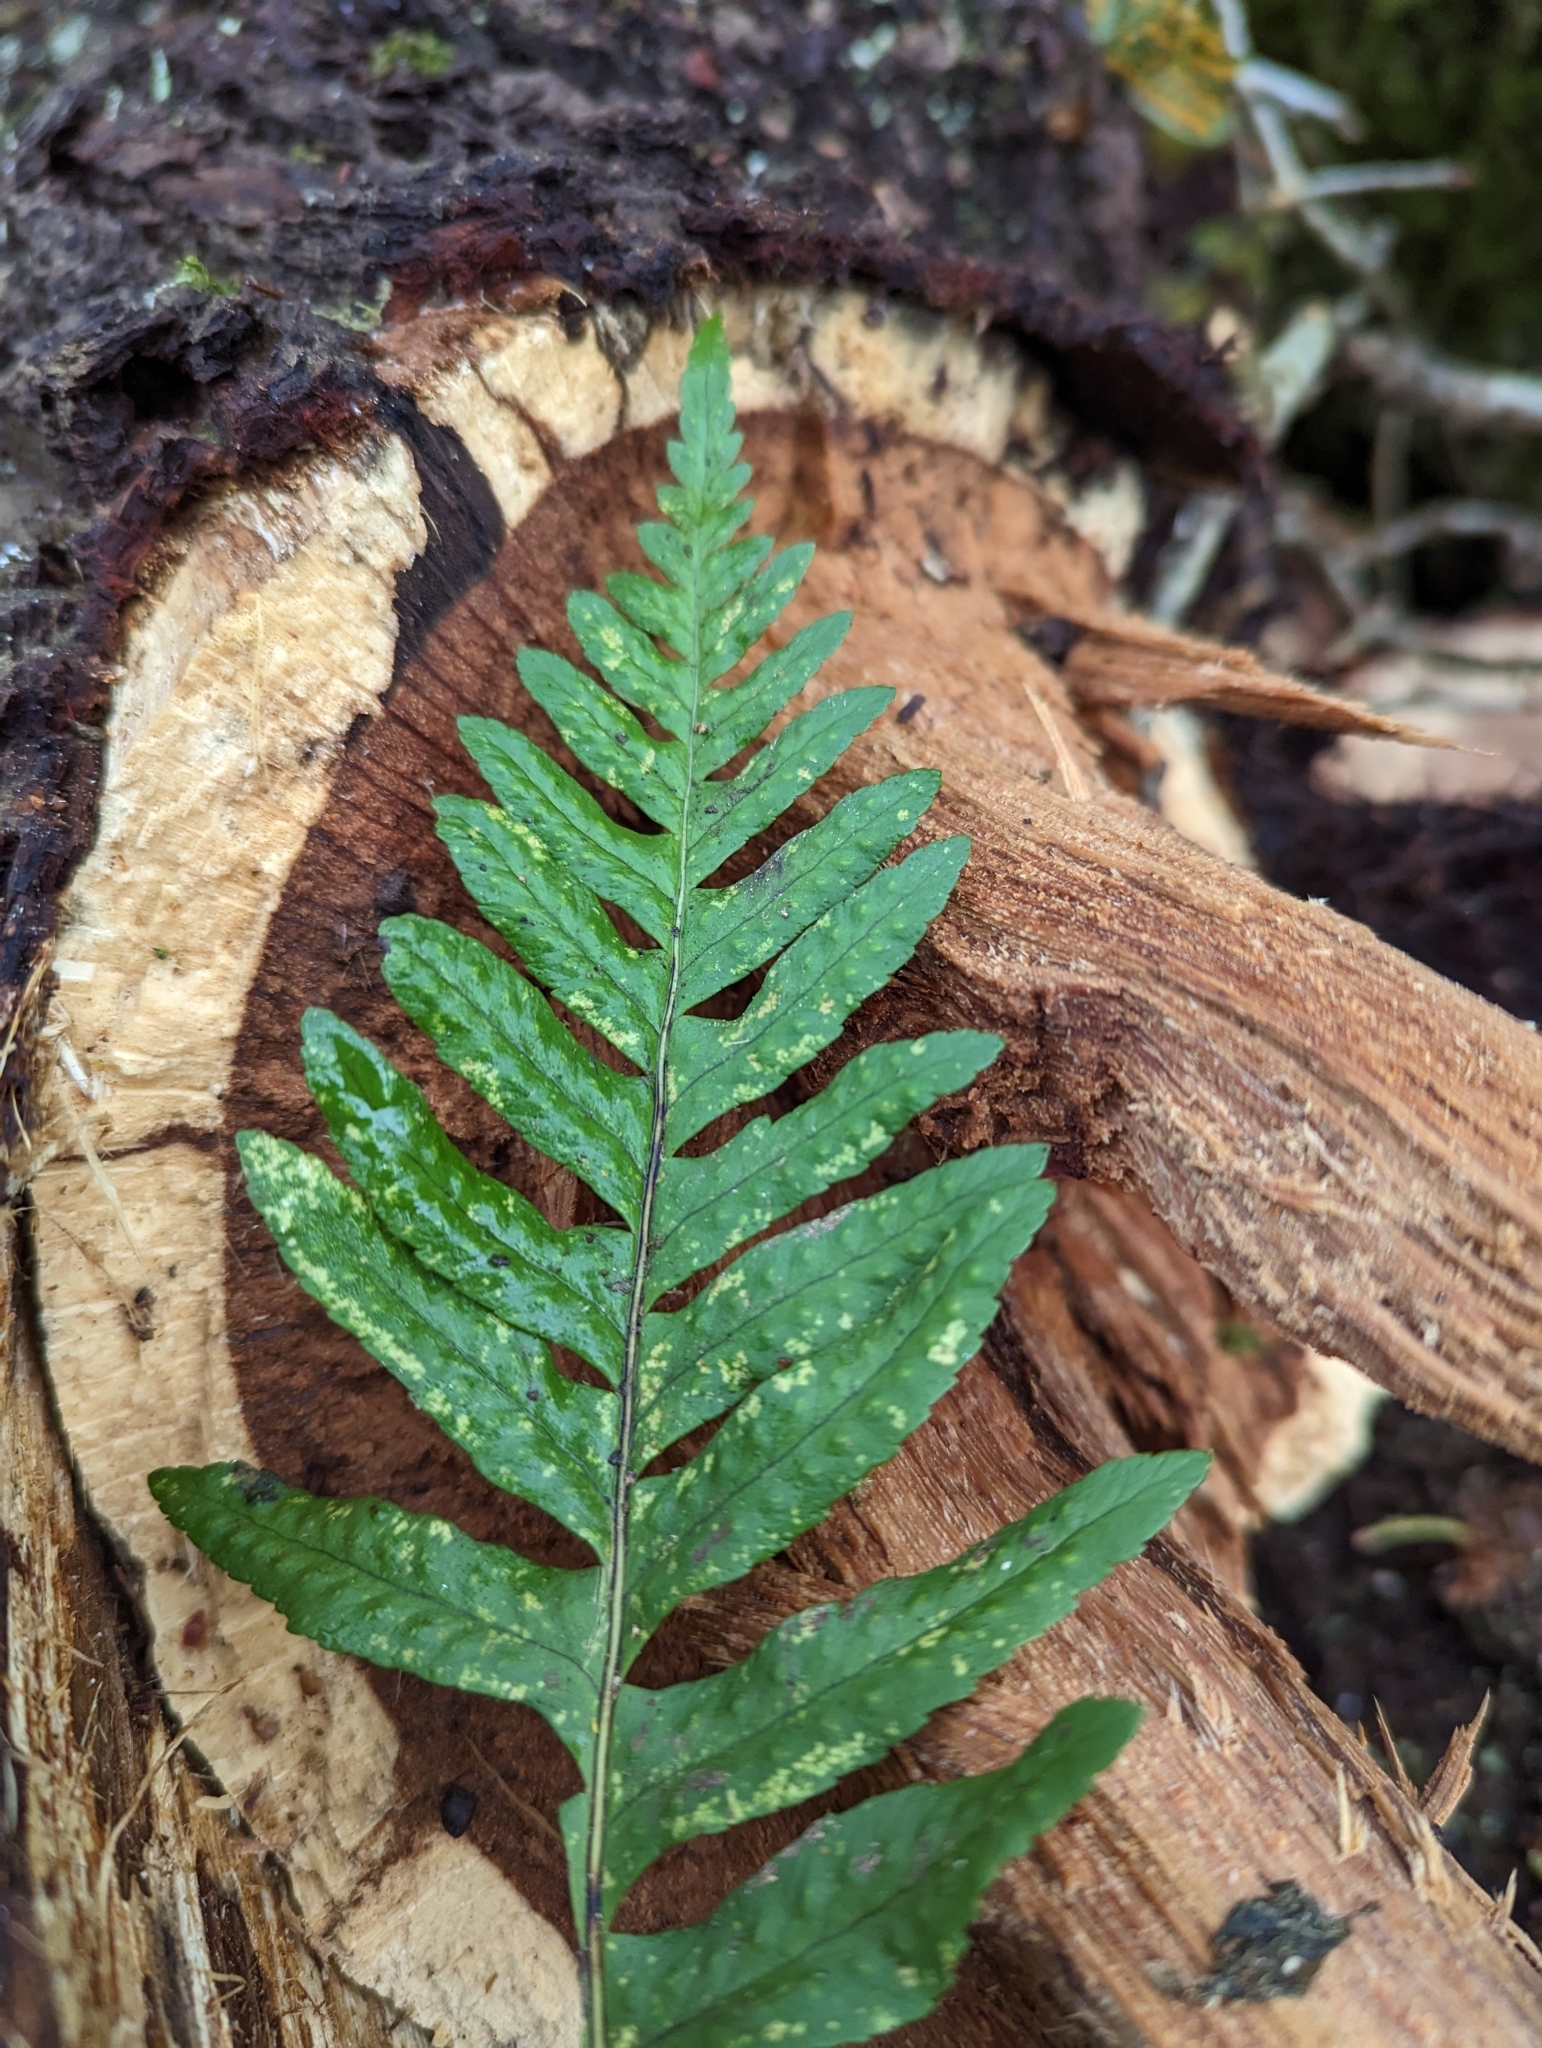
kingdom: Plantae
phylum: Tracheophyta
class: Polypodiopsida
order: Polypodiales
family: Polypodiaceae
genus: Polypodium
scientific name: Polypodium
